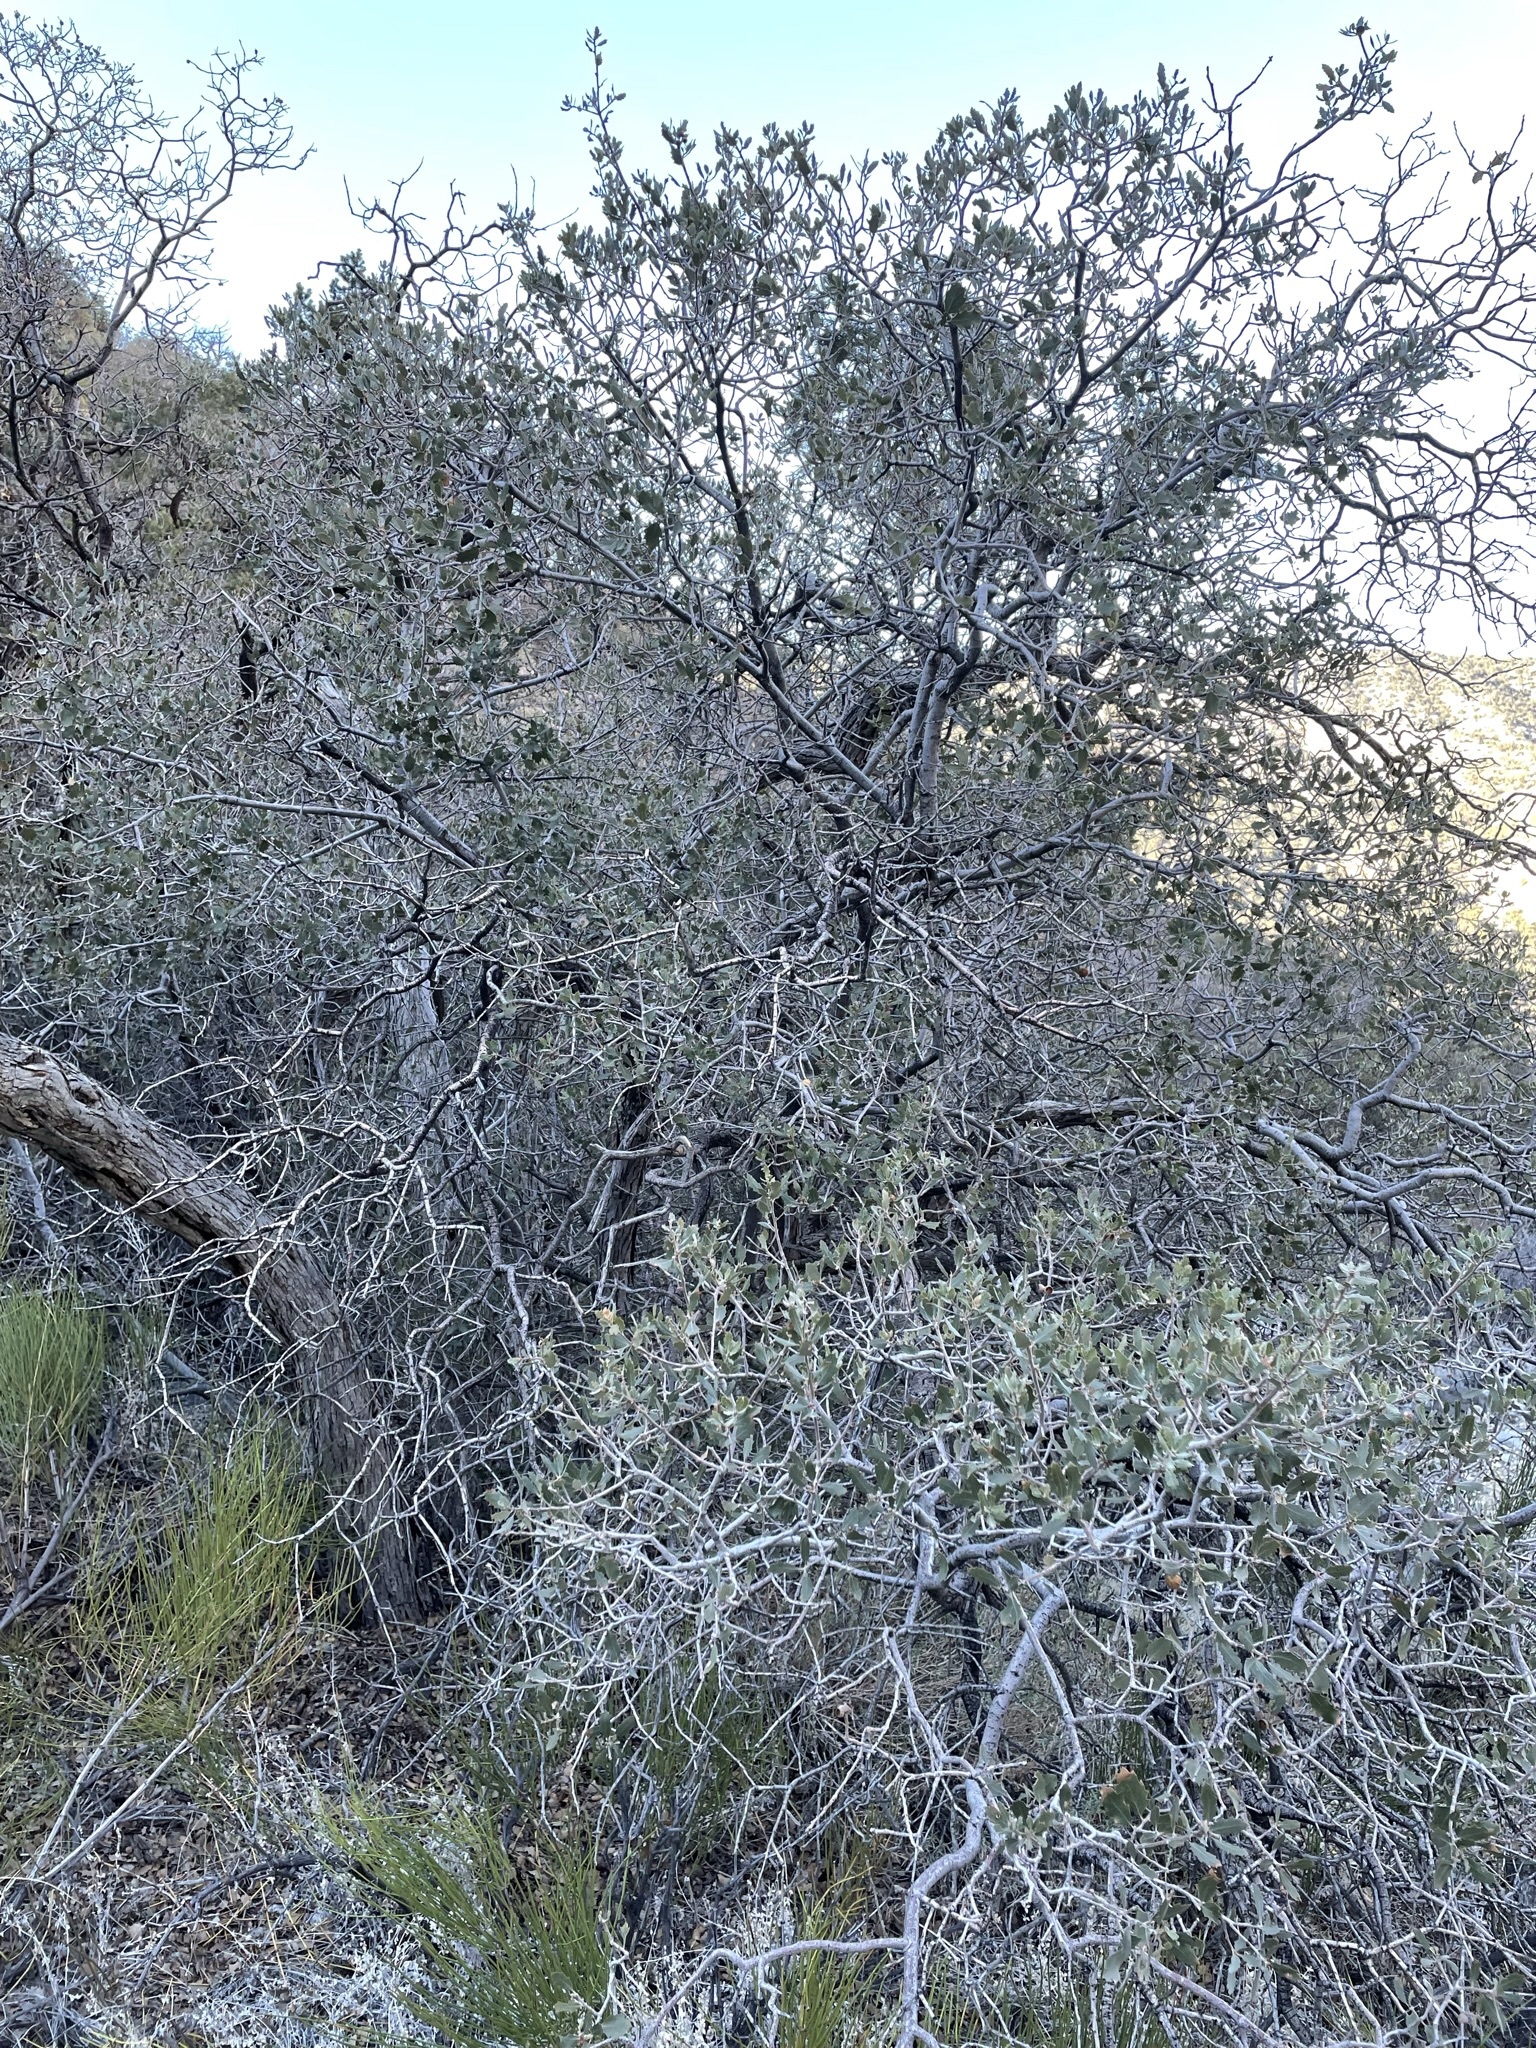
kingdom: Plantae
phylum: Tracheophyta
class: Magnoliopsida
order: Fagales
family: Fagaceae
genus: Quercus
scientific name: Quercus cornelius-mulleri
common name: Muller oak
